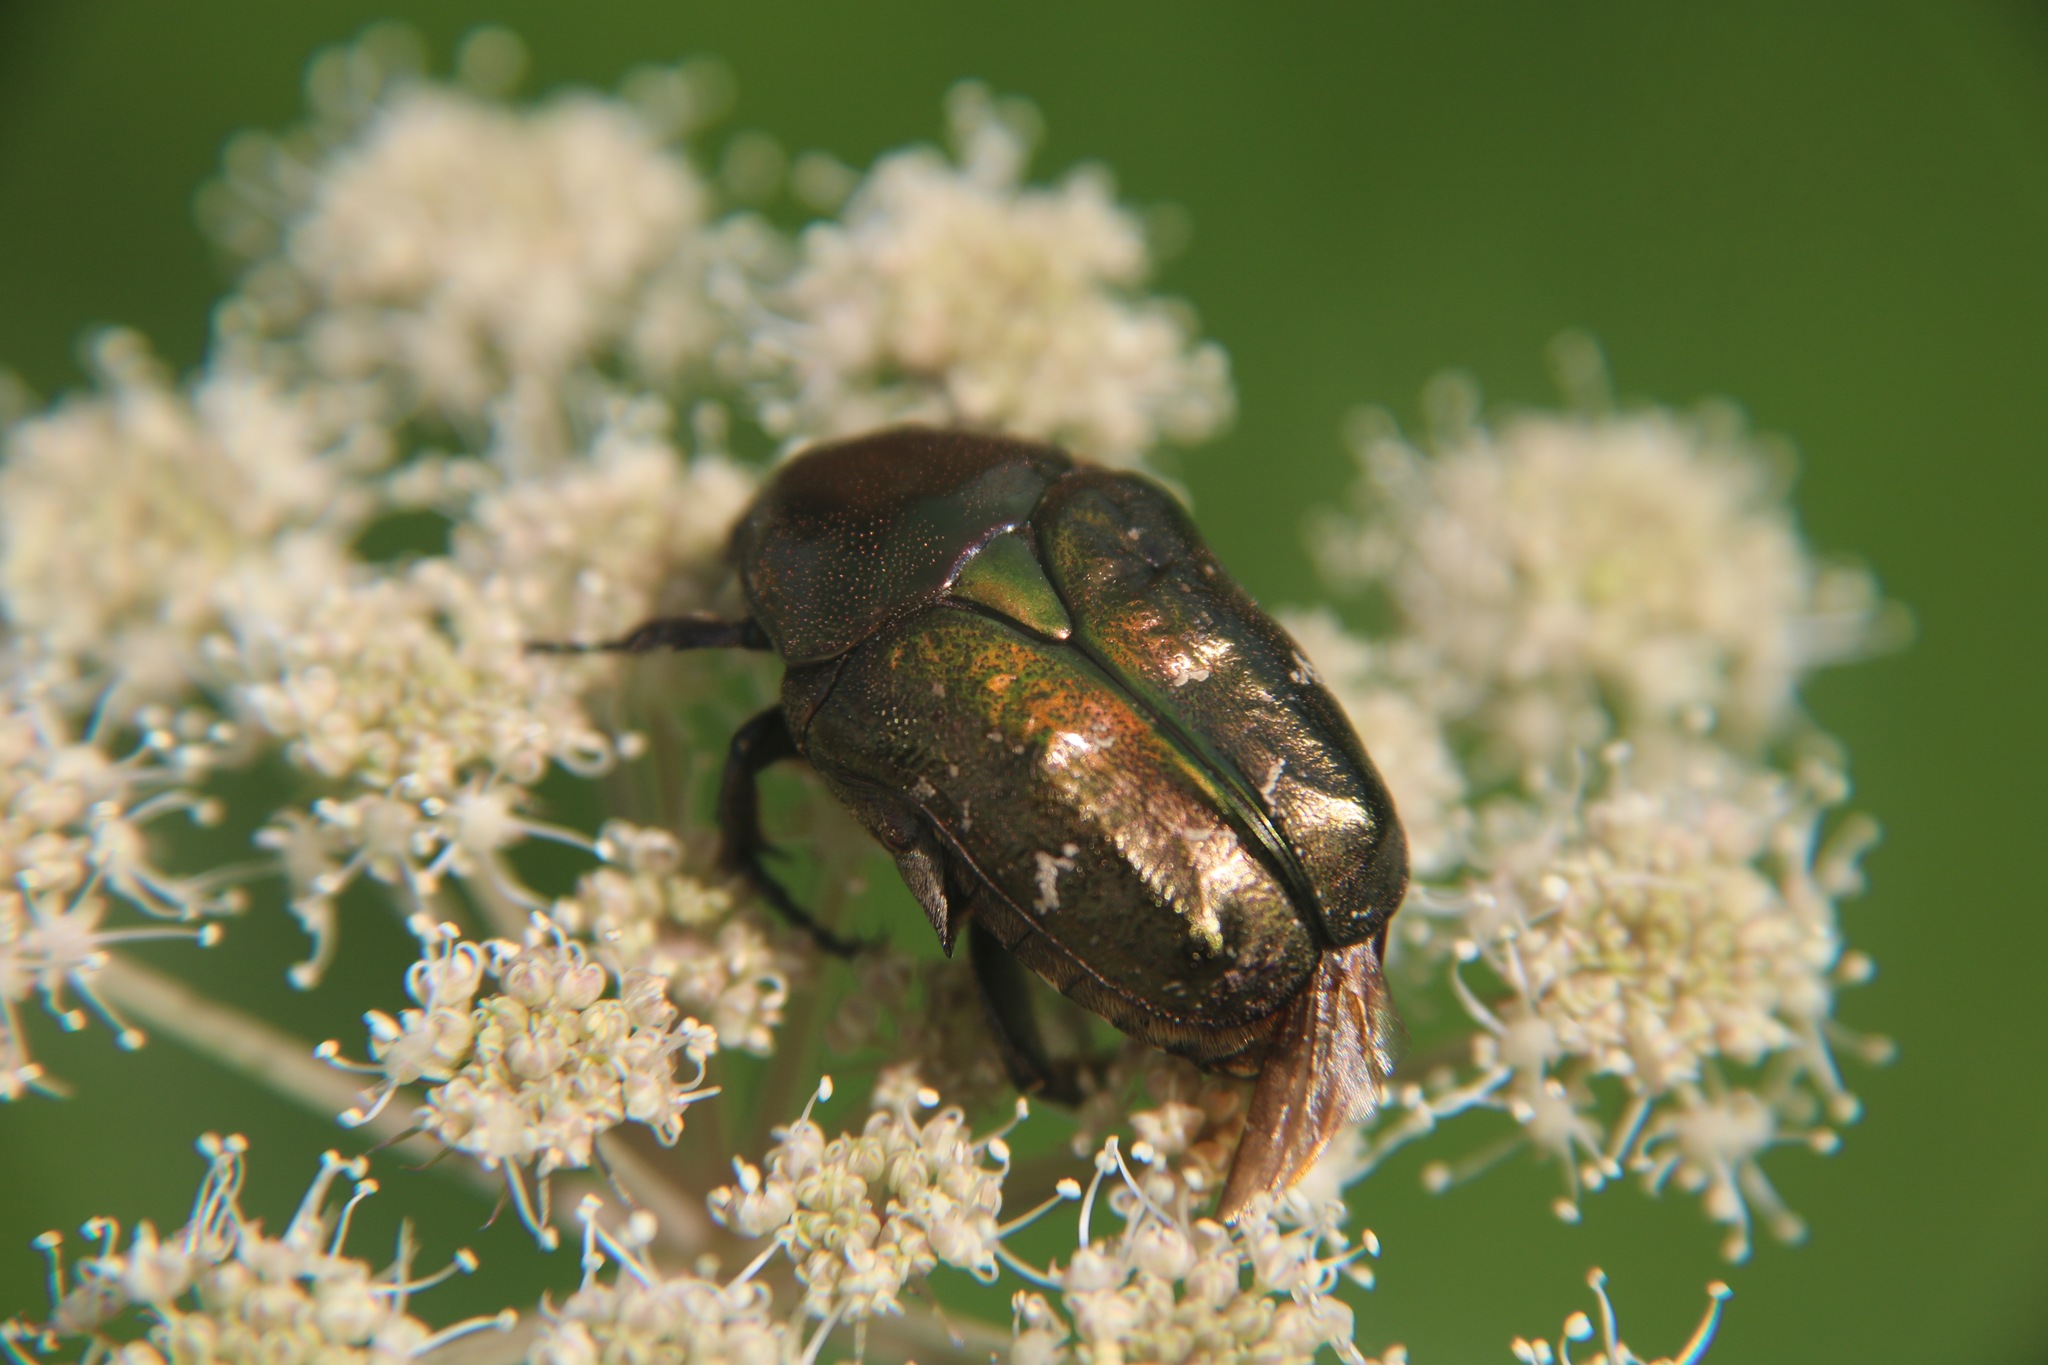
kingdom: Animalia
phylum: Arthropoda
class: Insecta
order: Coleoptera
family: Scarabaeidae
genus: Protaetia
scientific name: Protaetia cuprea
